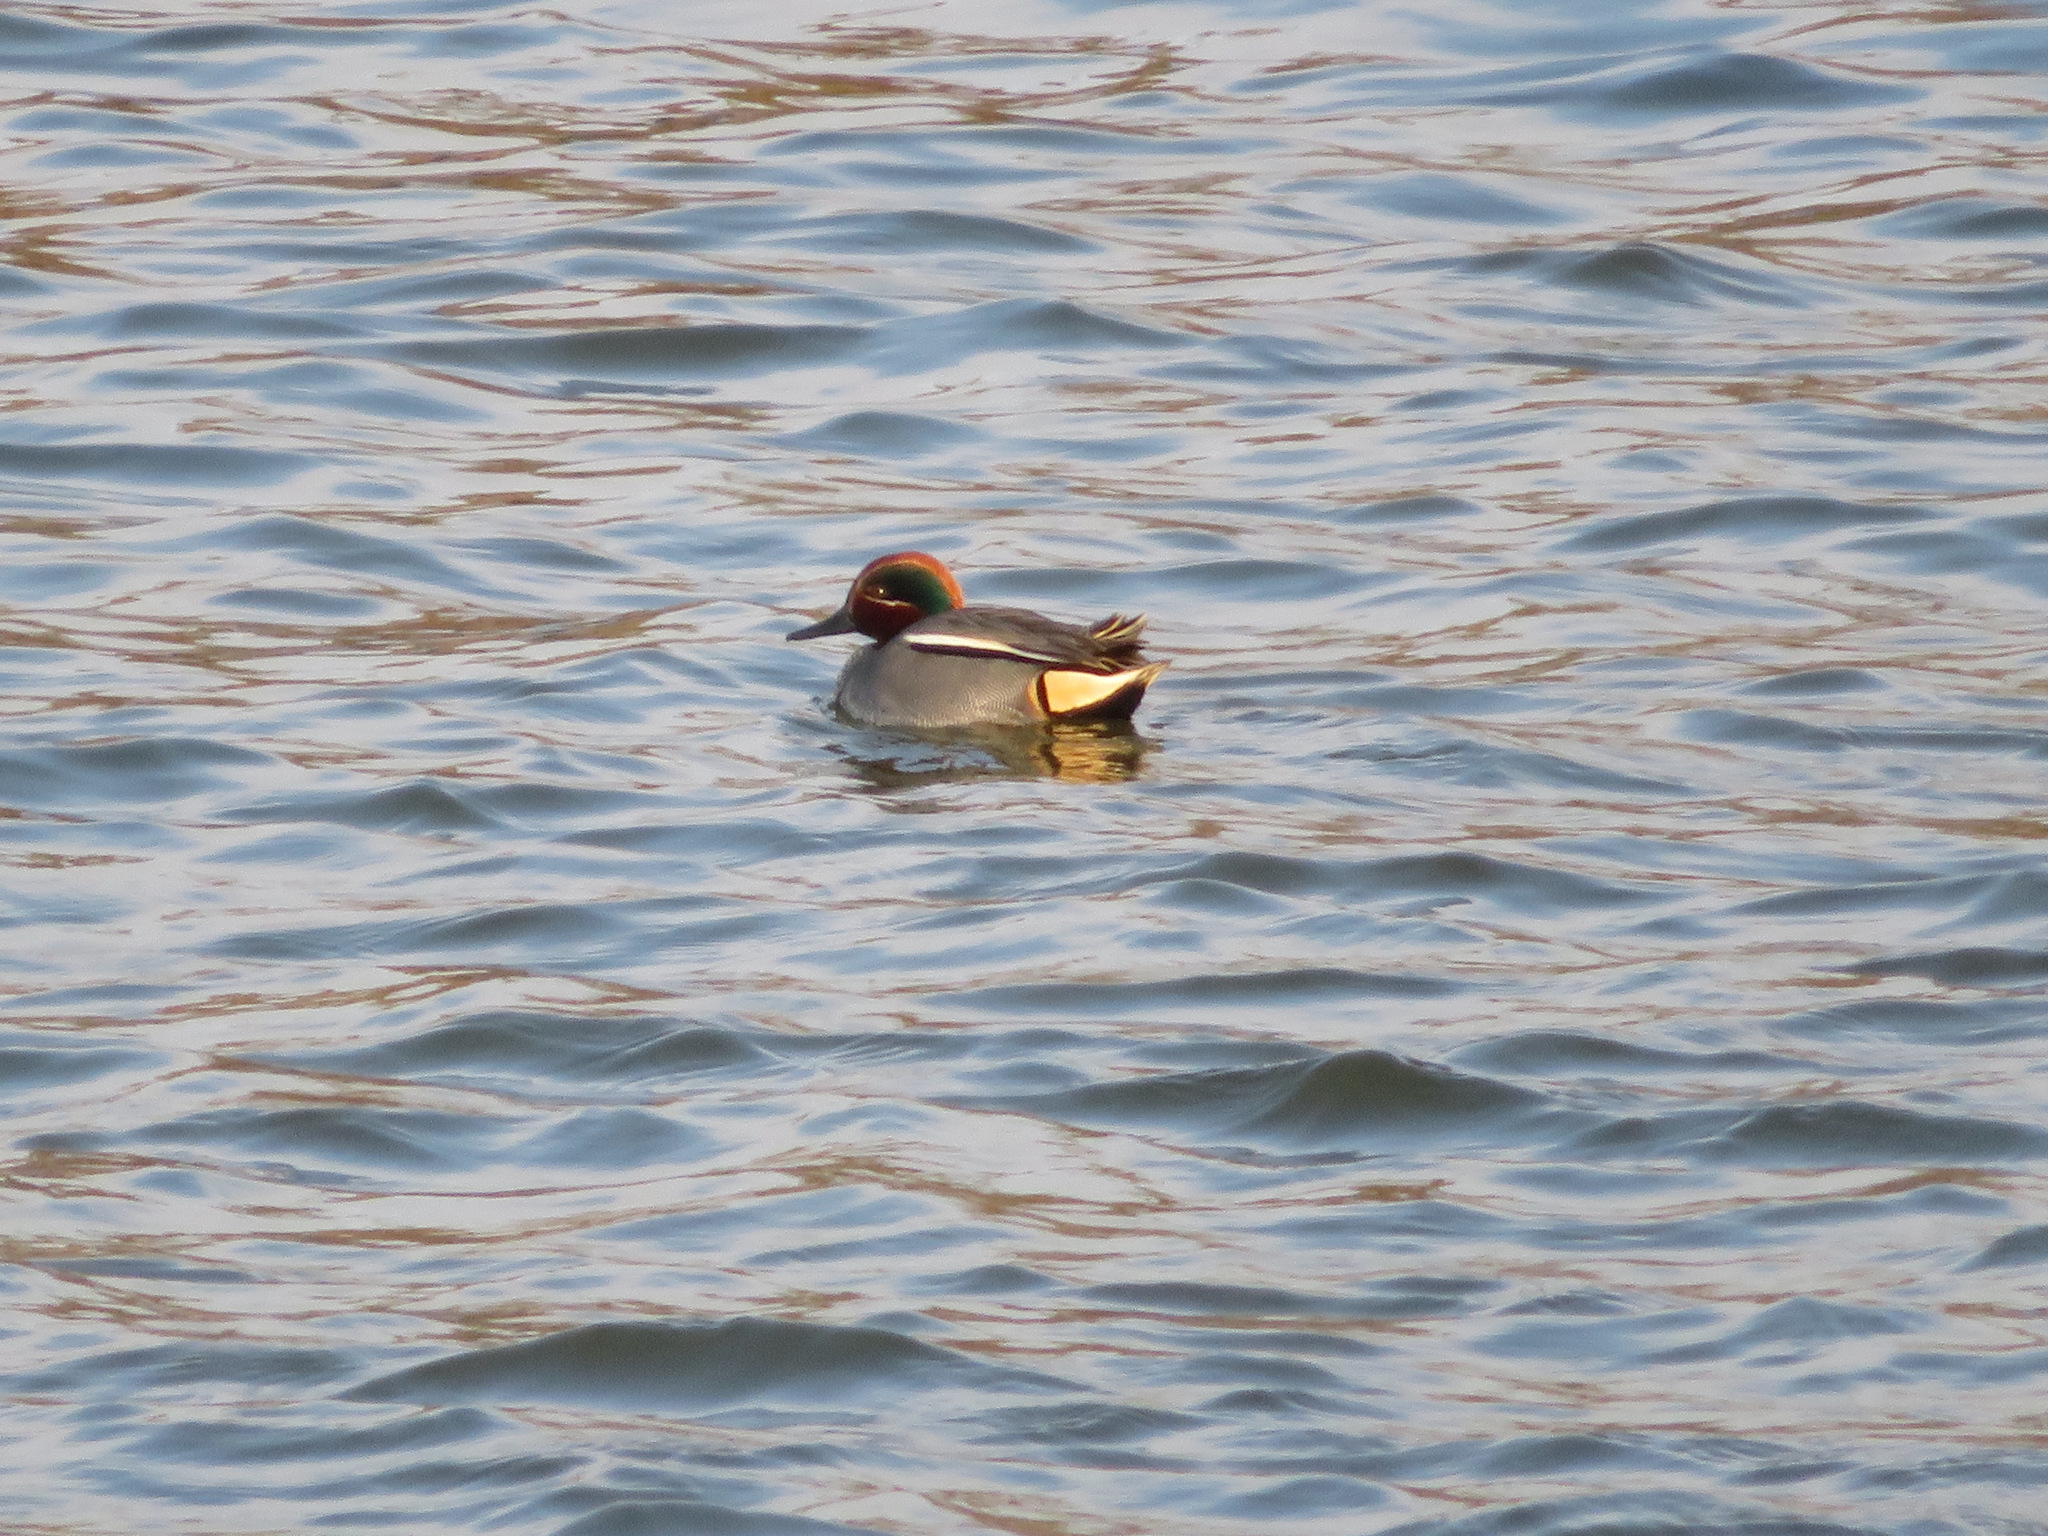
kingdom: Animalia
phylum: Chordata
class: Aves
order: Anseriformes
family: Anatidae
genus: Anas
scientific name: Anas crecca
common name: Eurasian teal
